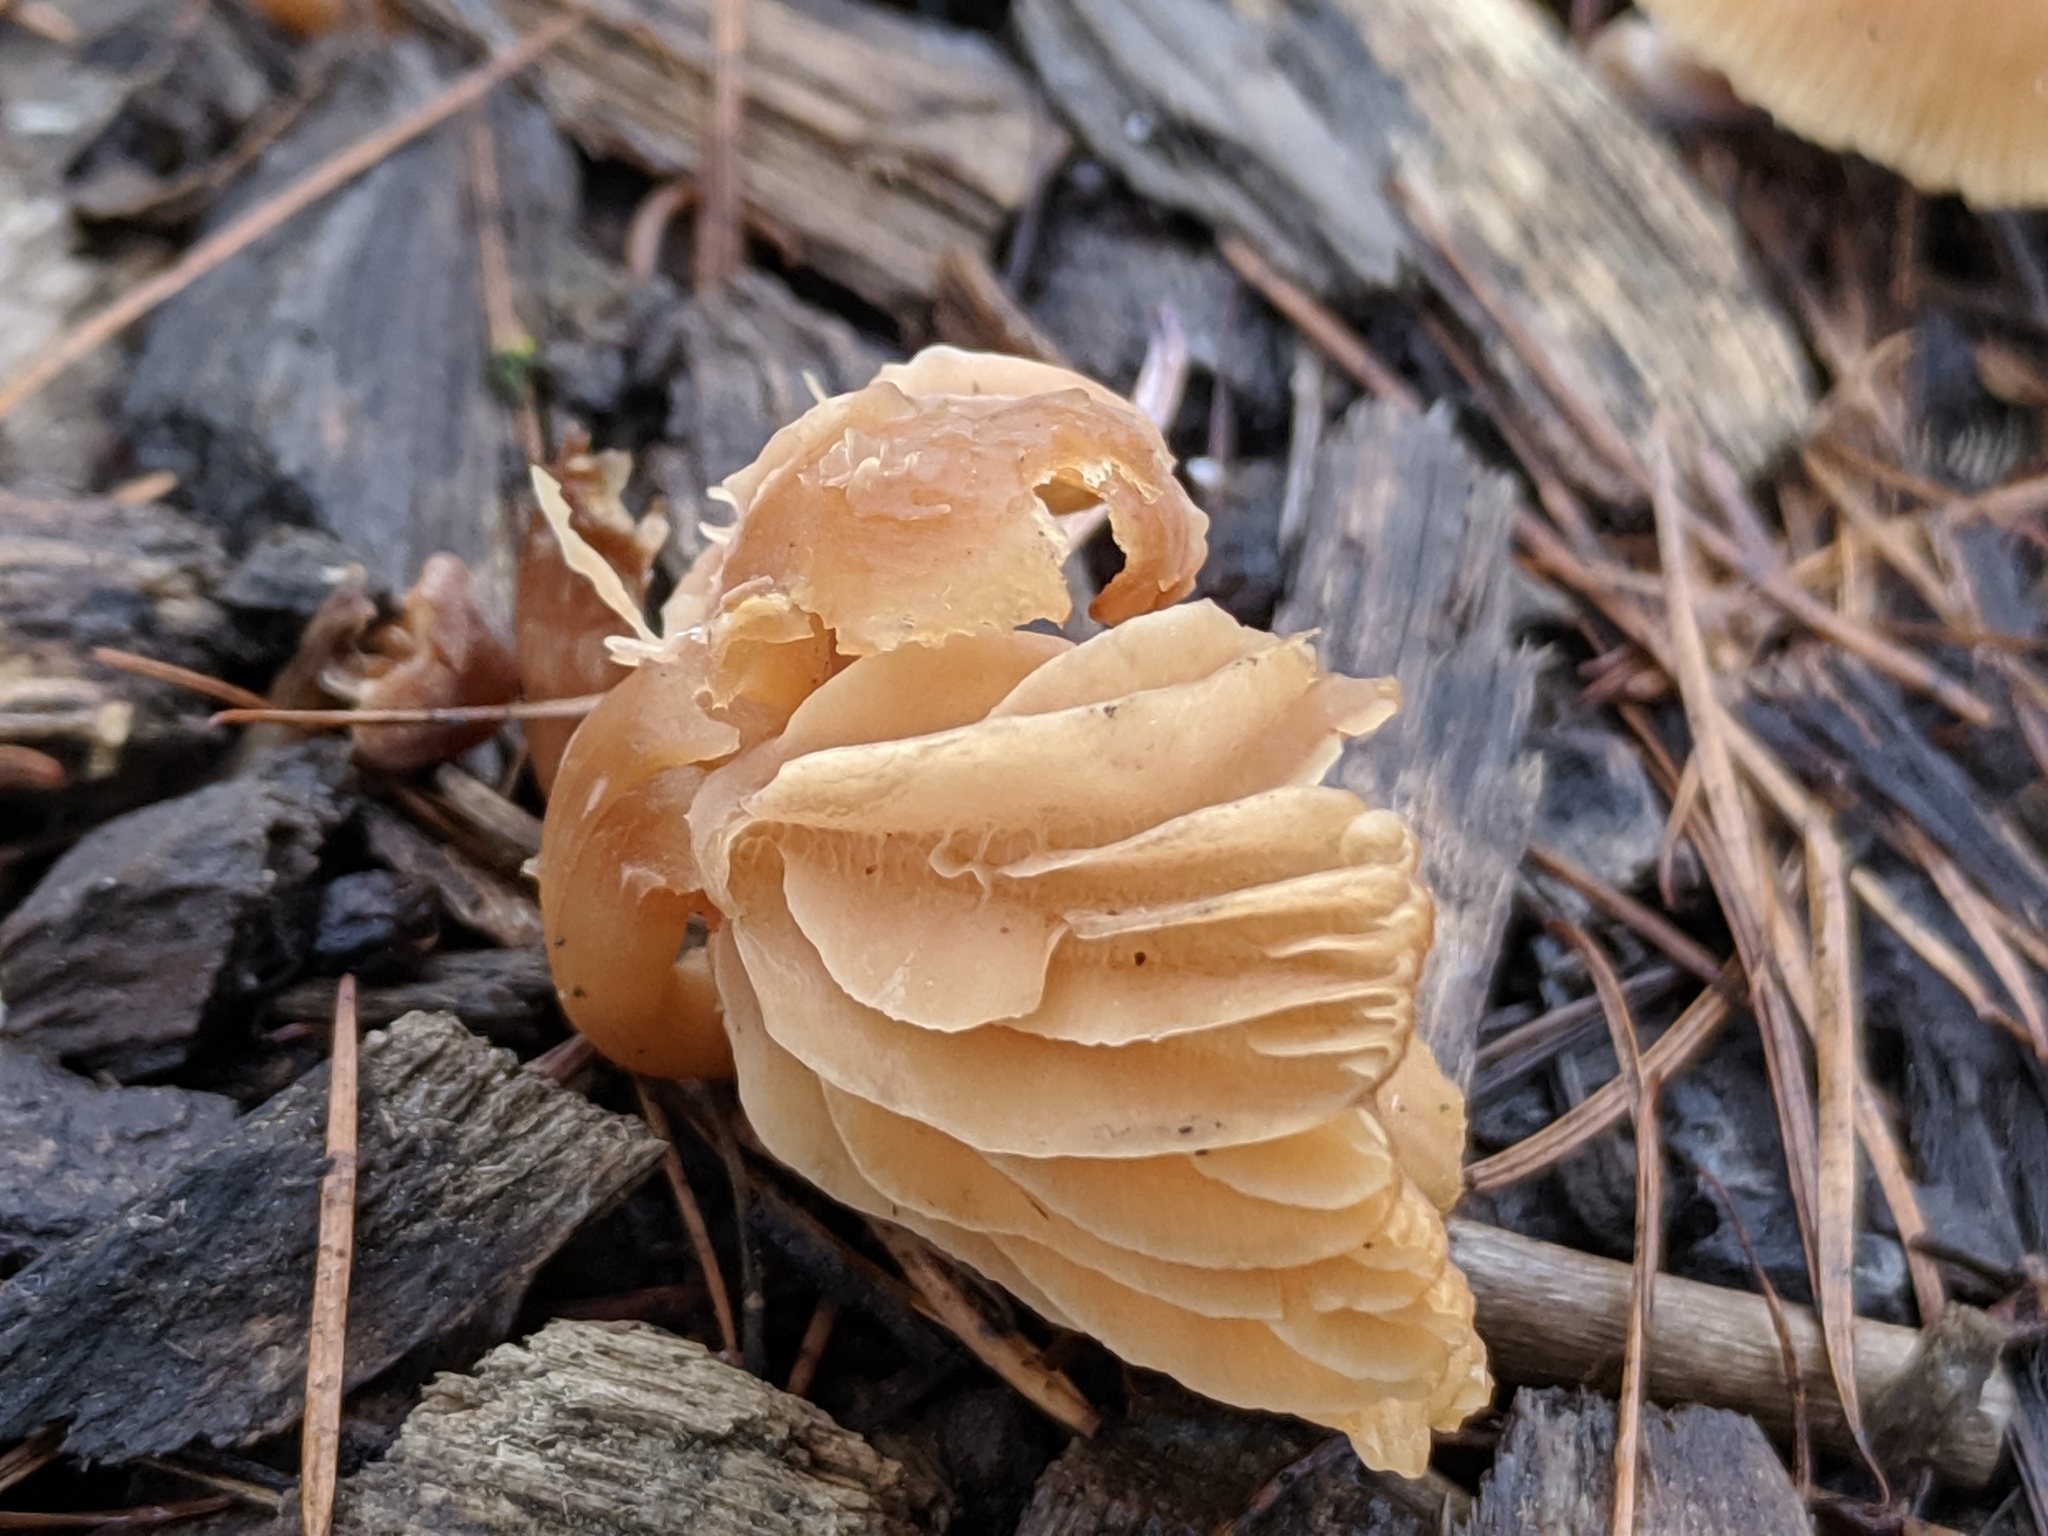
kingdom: Fungi
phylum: Basidiomycota
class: Agaricomycetes
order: Agaricales
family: Tubariaceae
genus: Tubaria
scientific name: Tubaria furfuracea
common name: Scurfy twiglet
